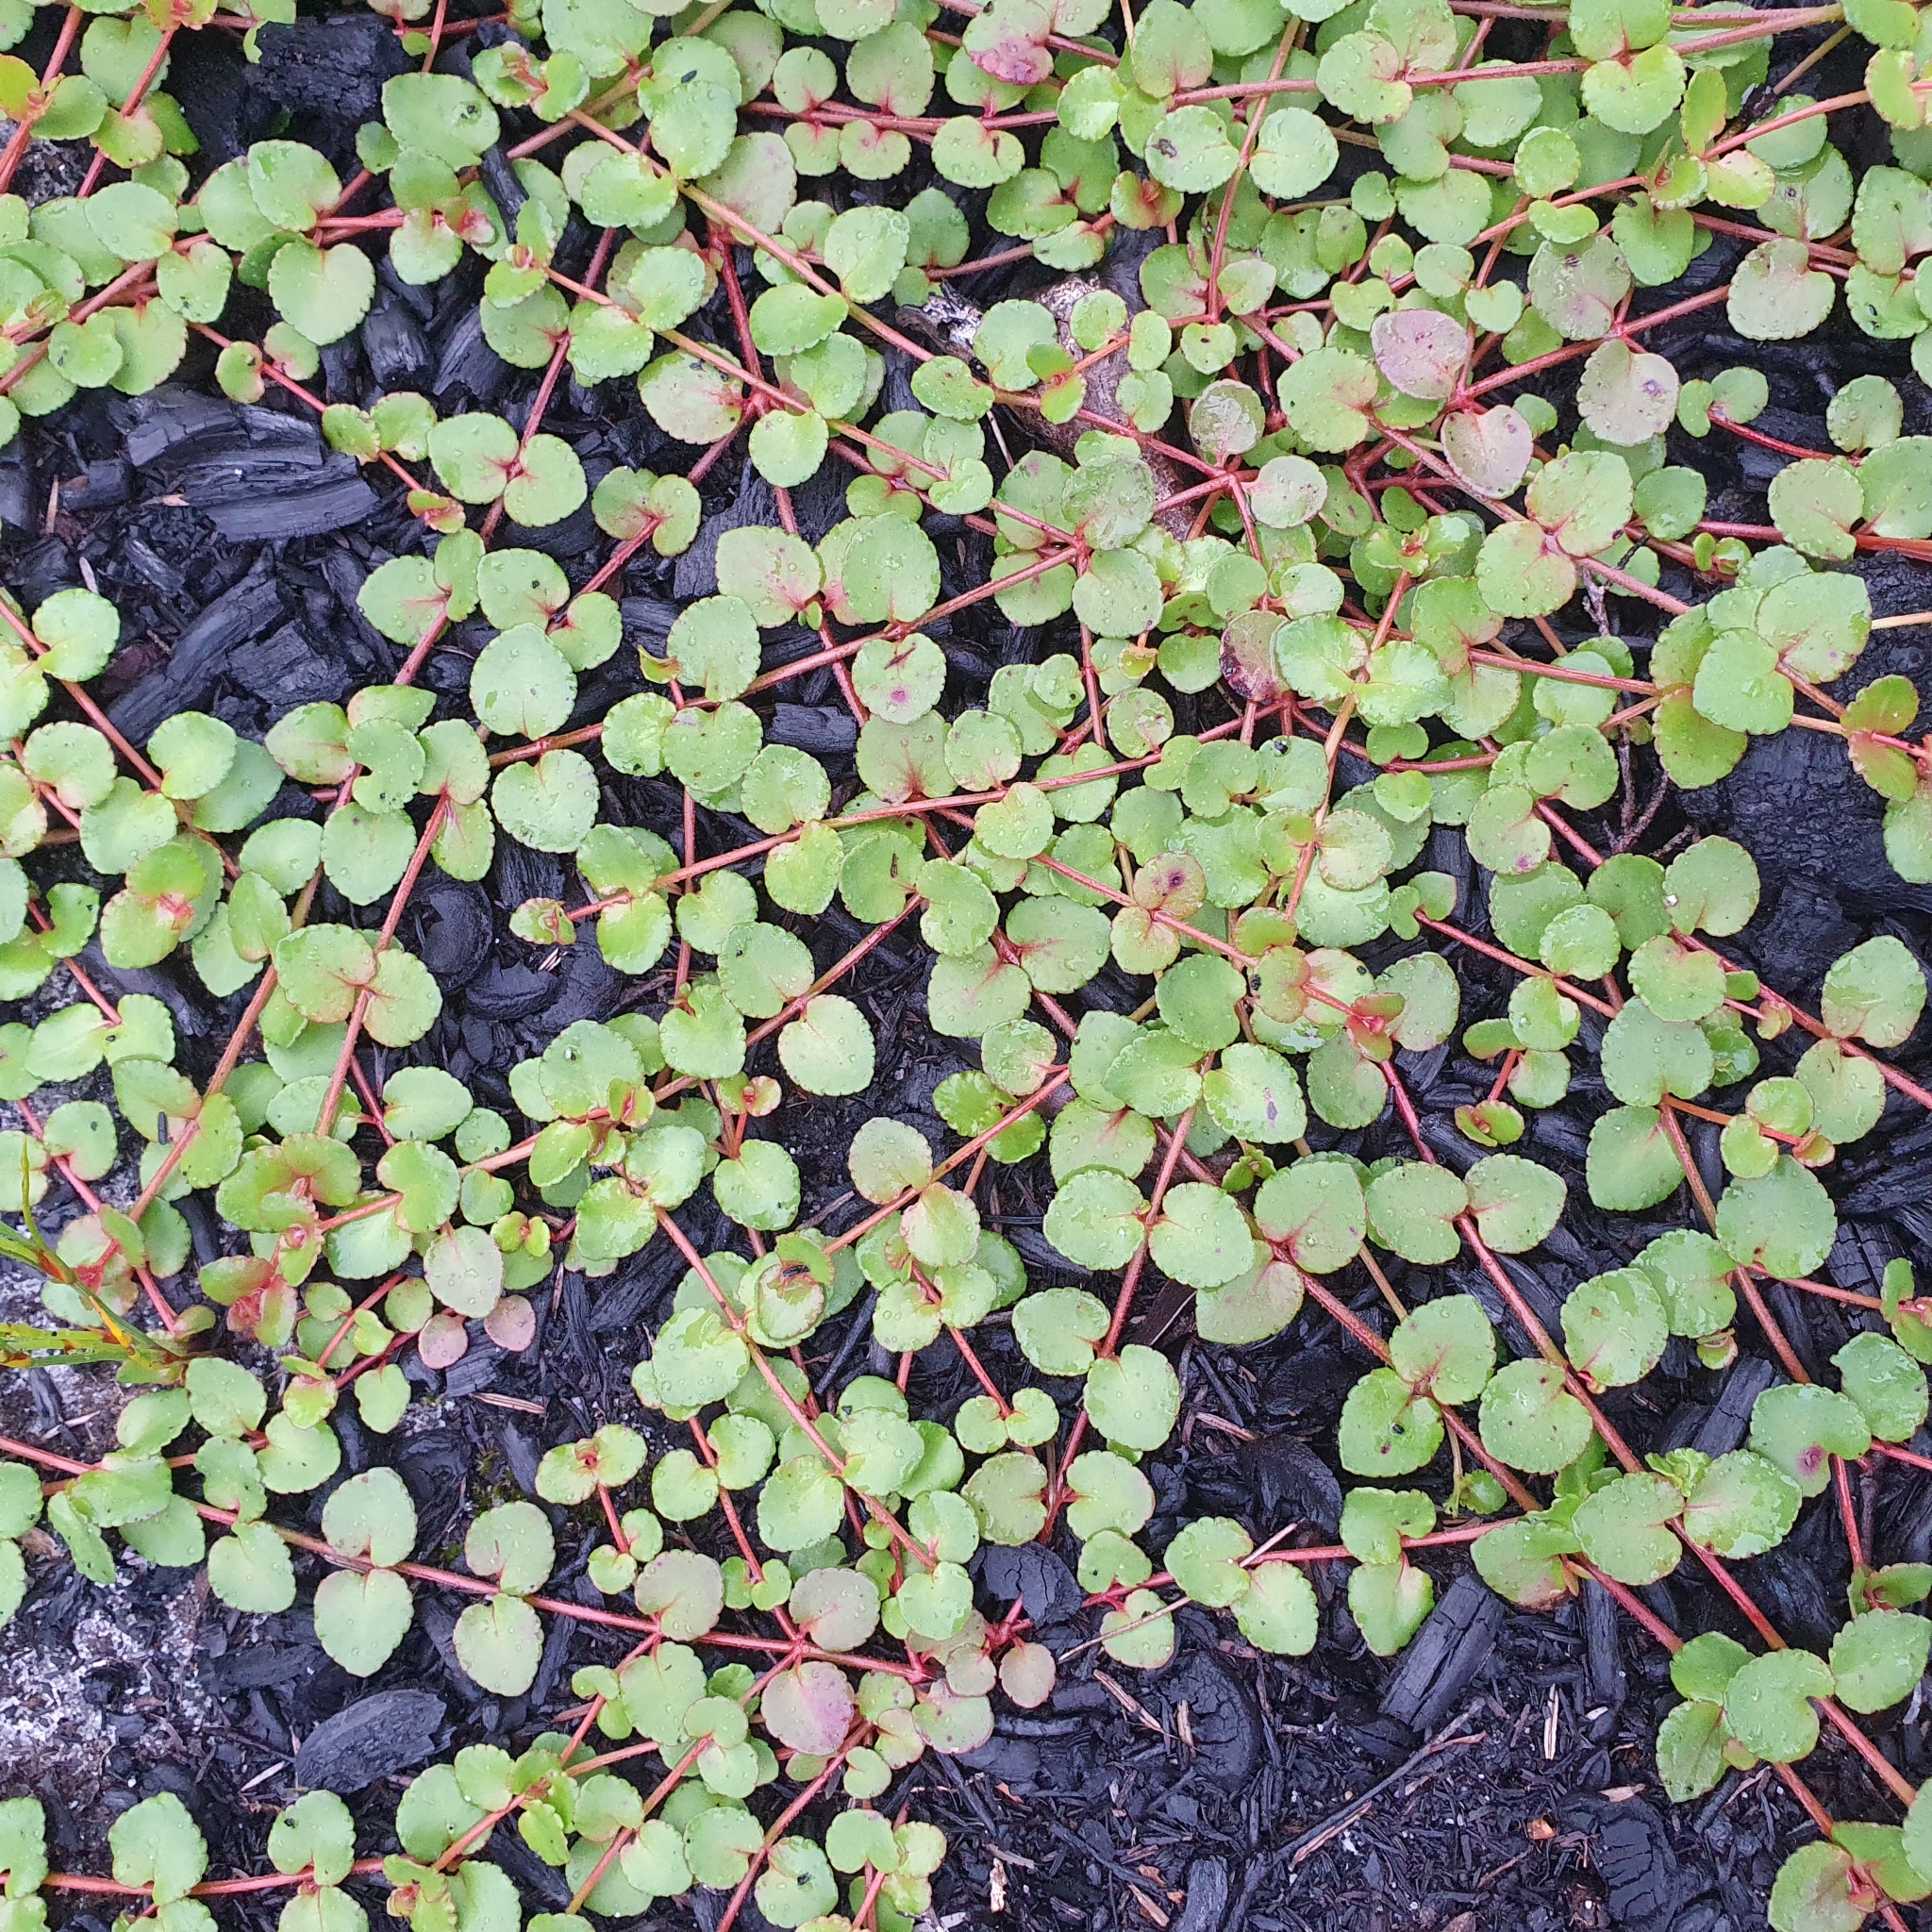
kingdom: Plantae
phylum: Tracheophyta
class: Magnoliopsida
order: Saxifragales
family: Haloragaceae
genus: Gonocarpus
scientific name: Gonocarpus micranthus
